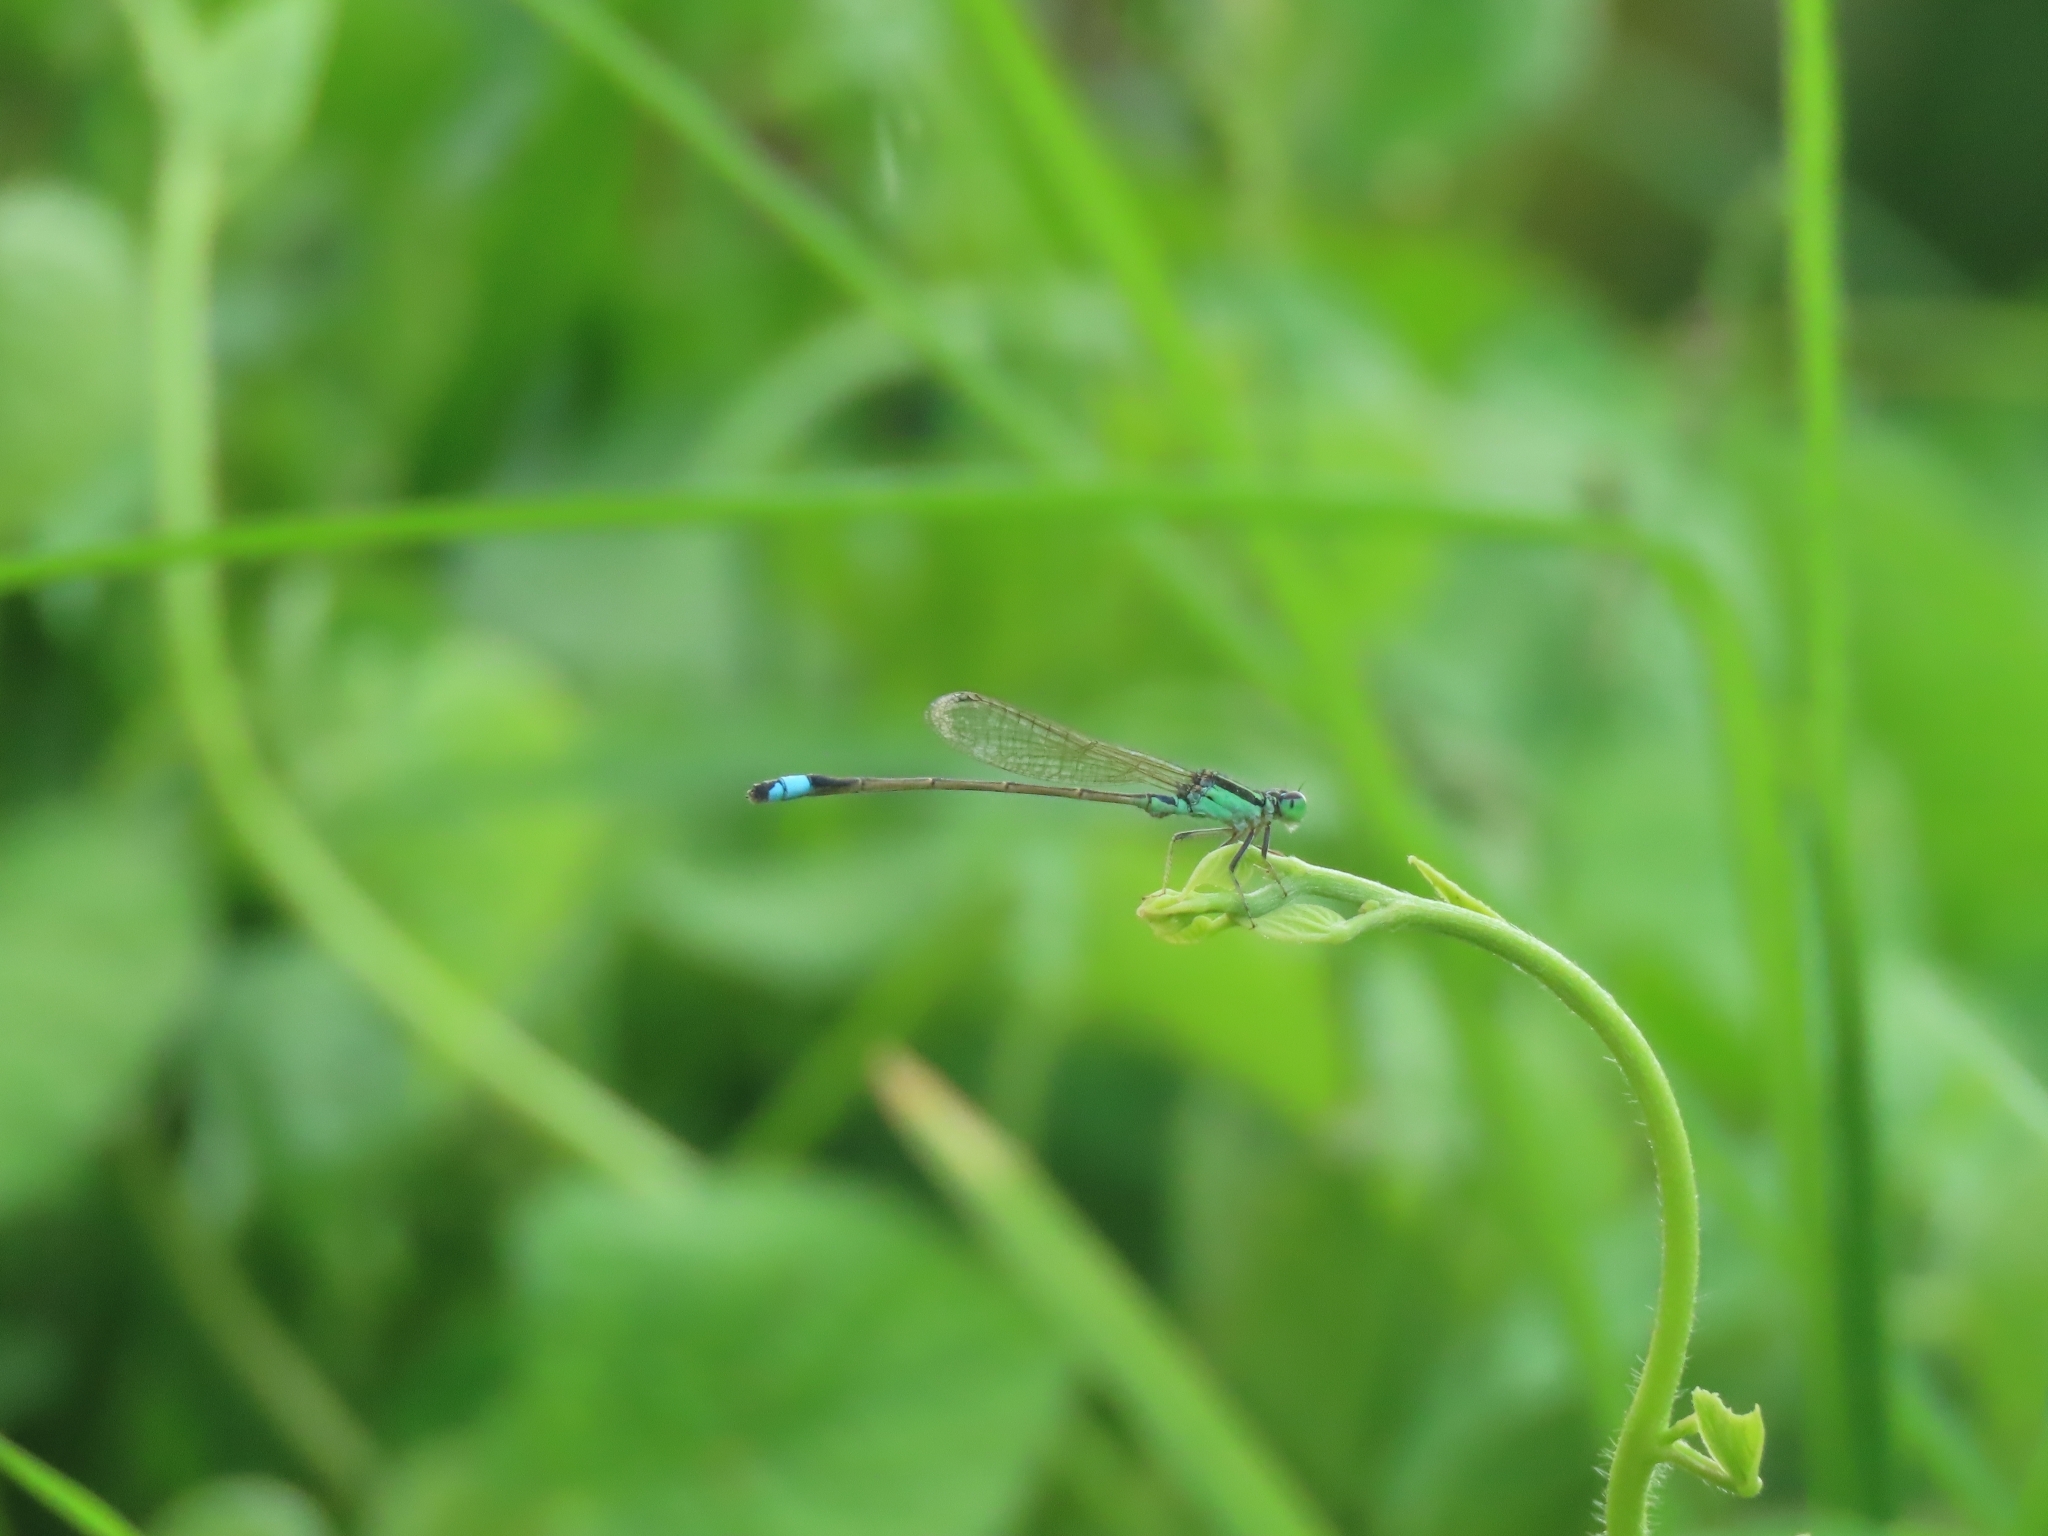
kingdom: Animalia
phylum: Arthropoda
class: Insecta
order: Odonata
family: Coenagrionidae
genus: Ischnura
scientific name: Ischnura senegalensis
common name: Tropical bluetail
